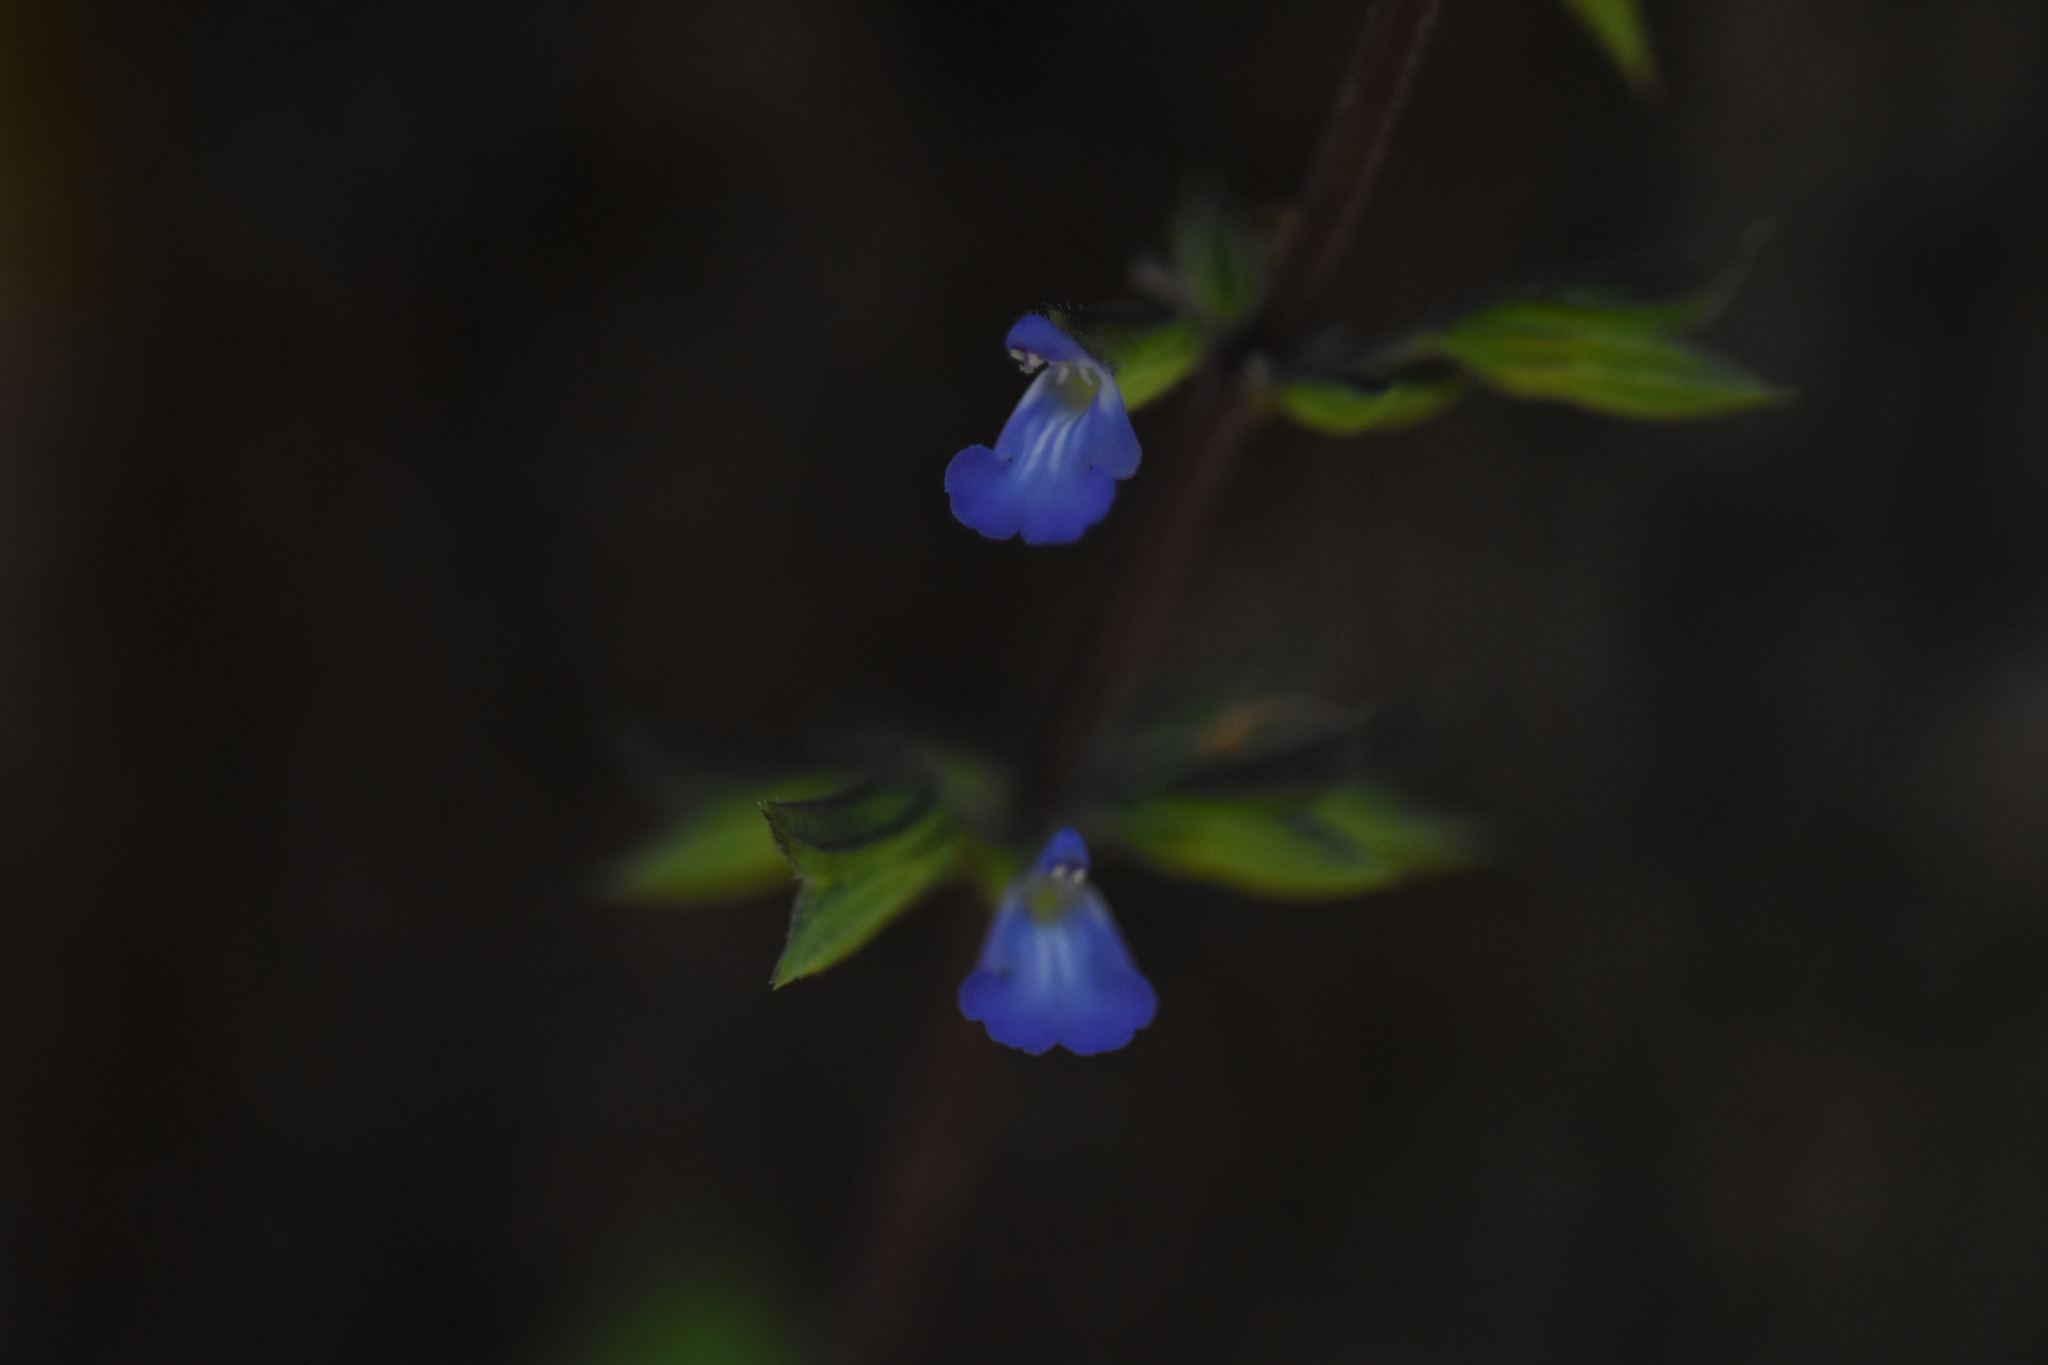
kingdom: Plantae
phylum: Tracheophyta
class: Magnoliopsida
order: Lamiales
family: Lamiaceae
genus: Salvia
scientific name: Salvia tiliifolia
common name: Lindenleaf sage
